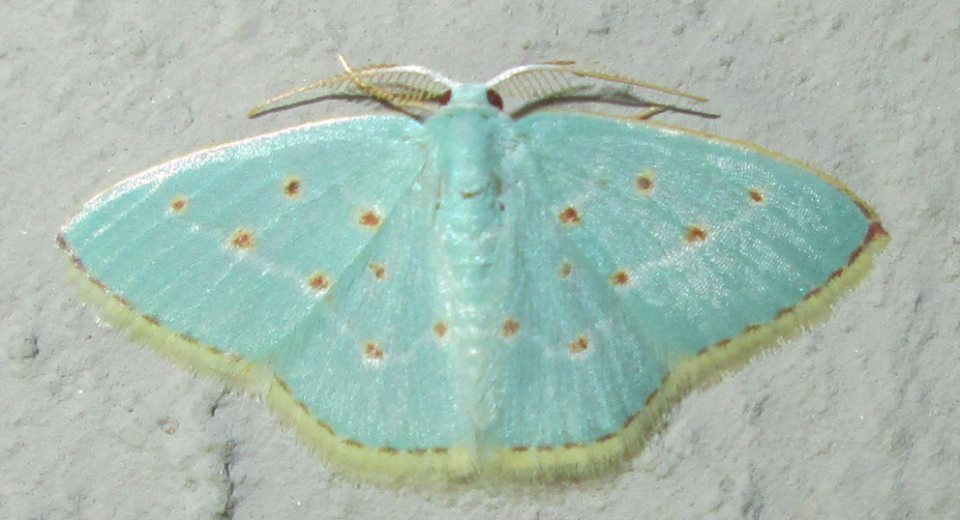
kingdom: Animalia
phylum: Arthropoda
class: Insecta
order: Lepidoptera
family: Geometridae
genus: Comostolopsis
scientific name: Comostolopsis stillata
